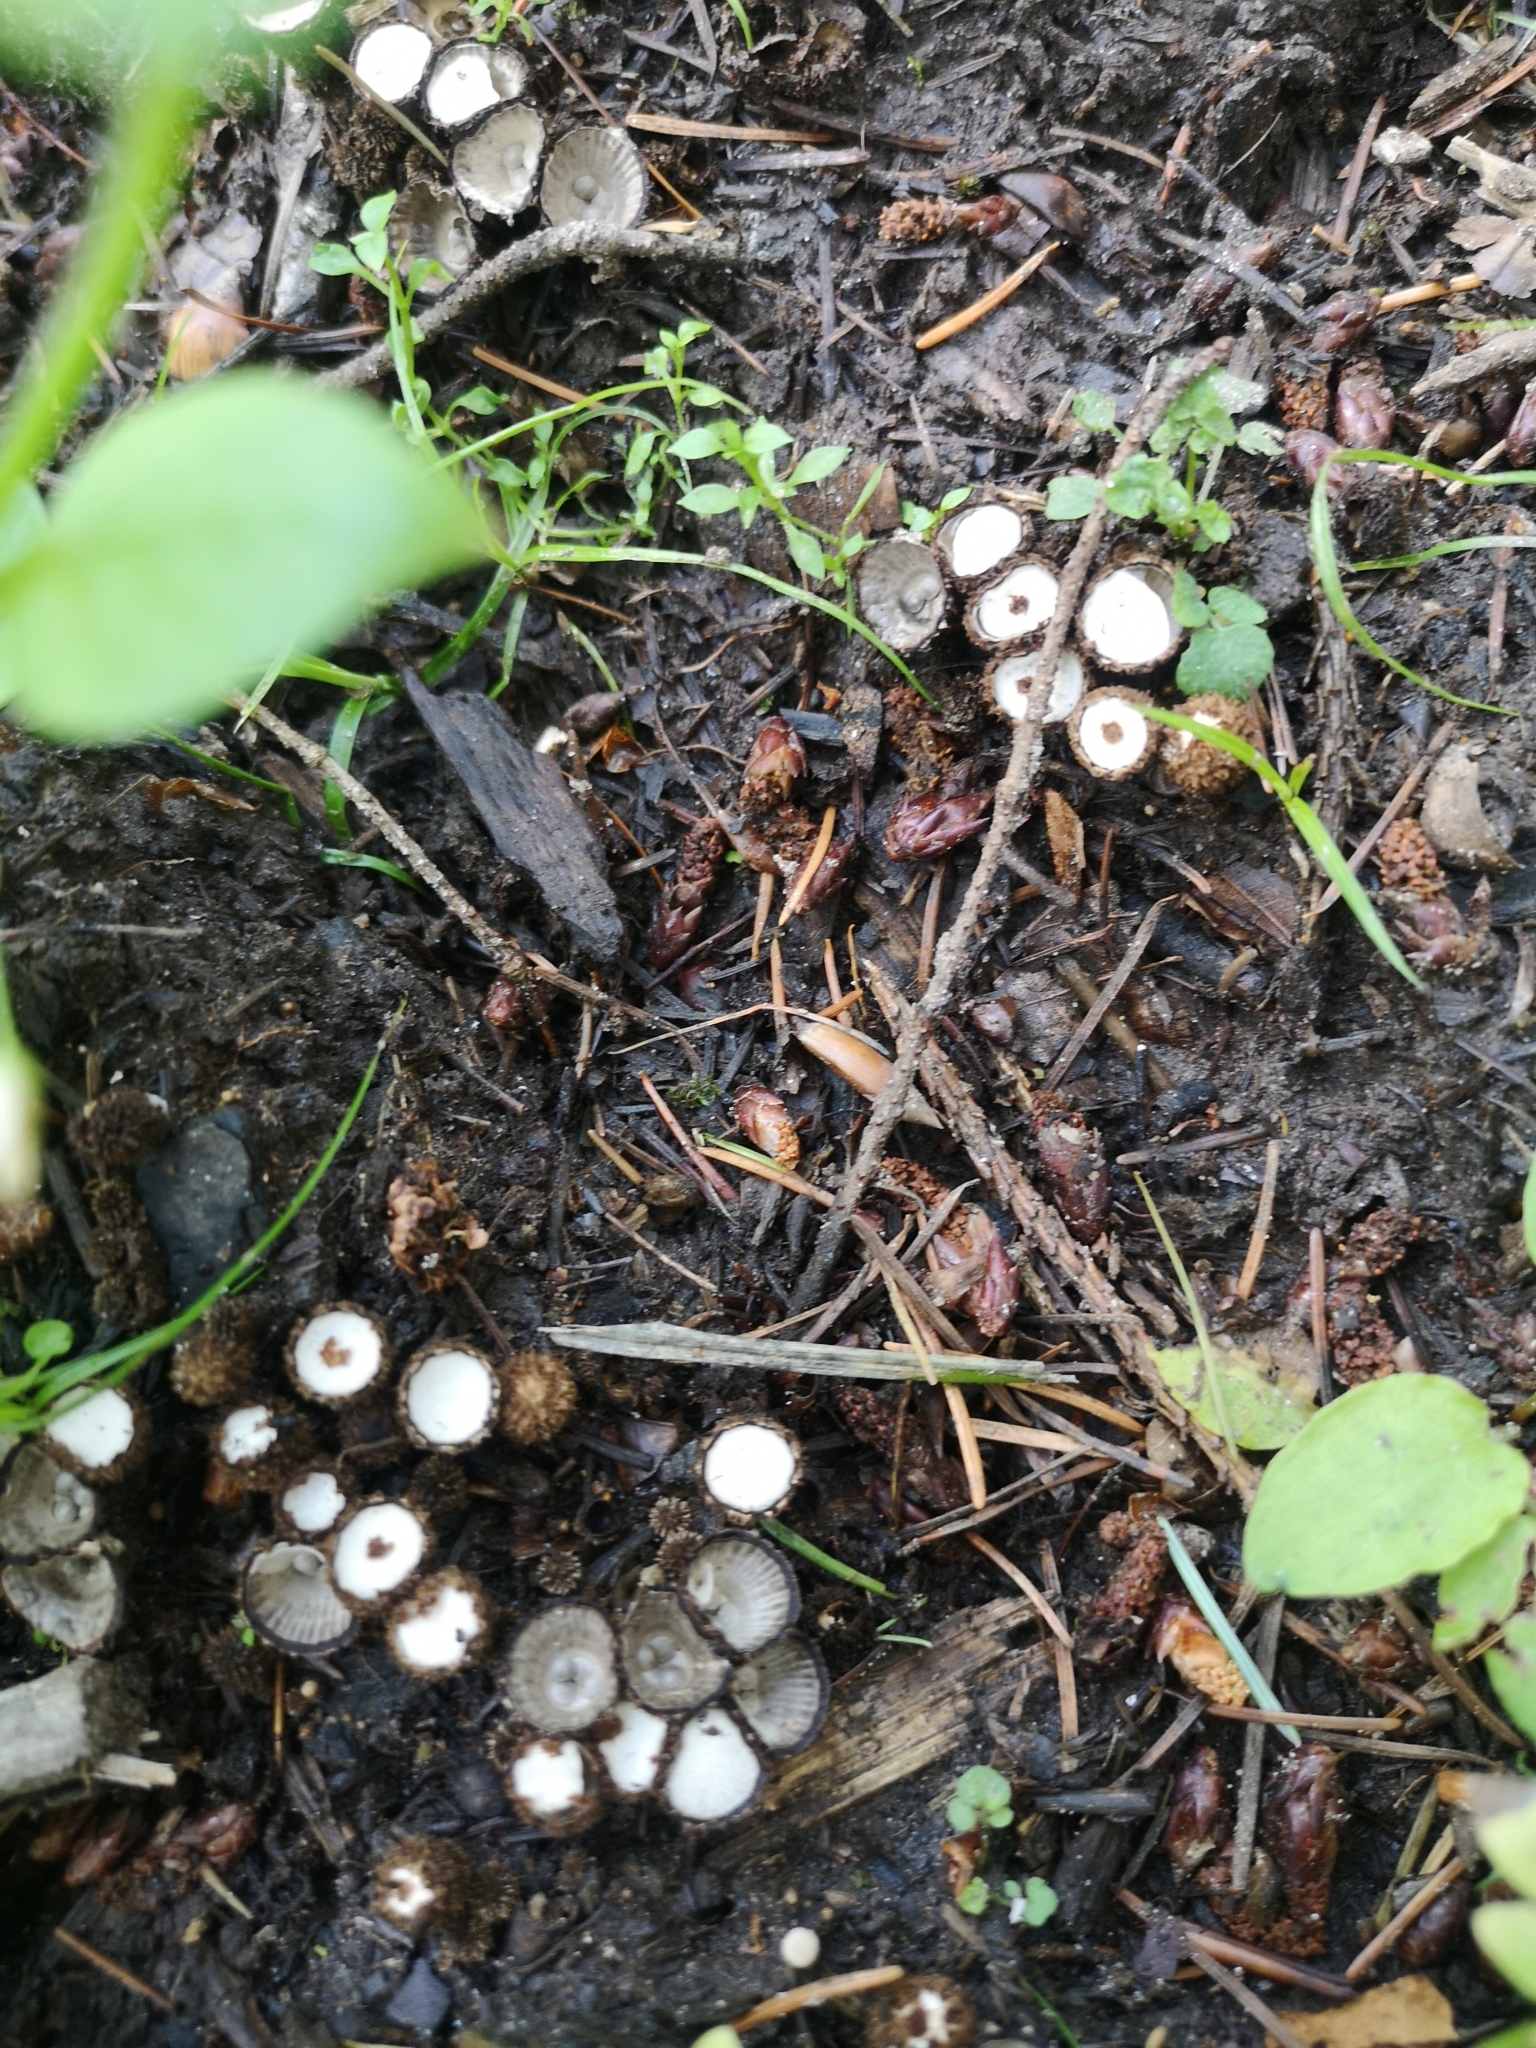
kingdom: Fungi
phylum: Basidiomycota
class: Agaricomycetes
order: Agaricales
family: Agaricaceae
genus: Cyathus
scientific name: Cyathus striatus
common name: Fluted bird's nest
